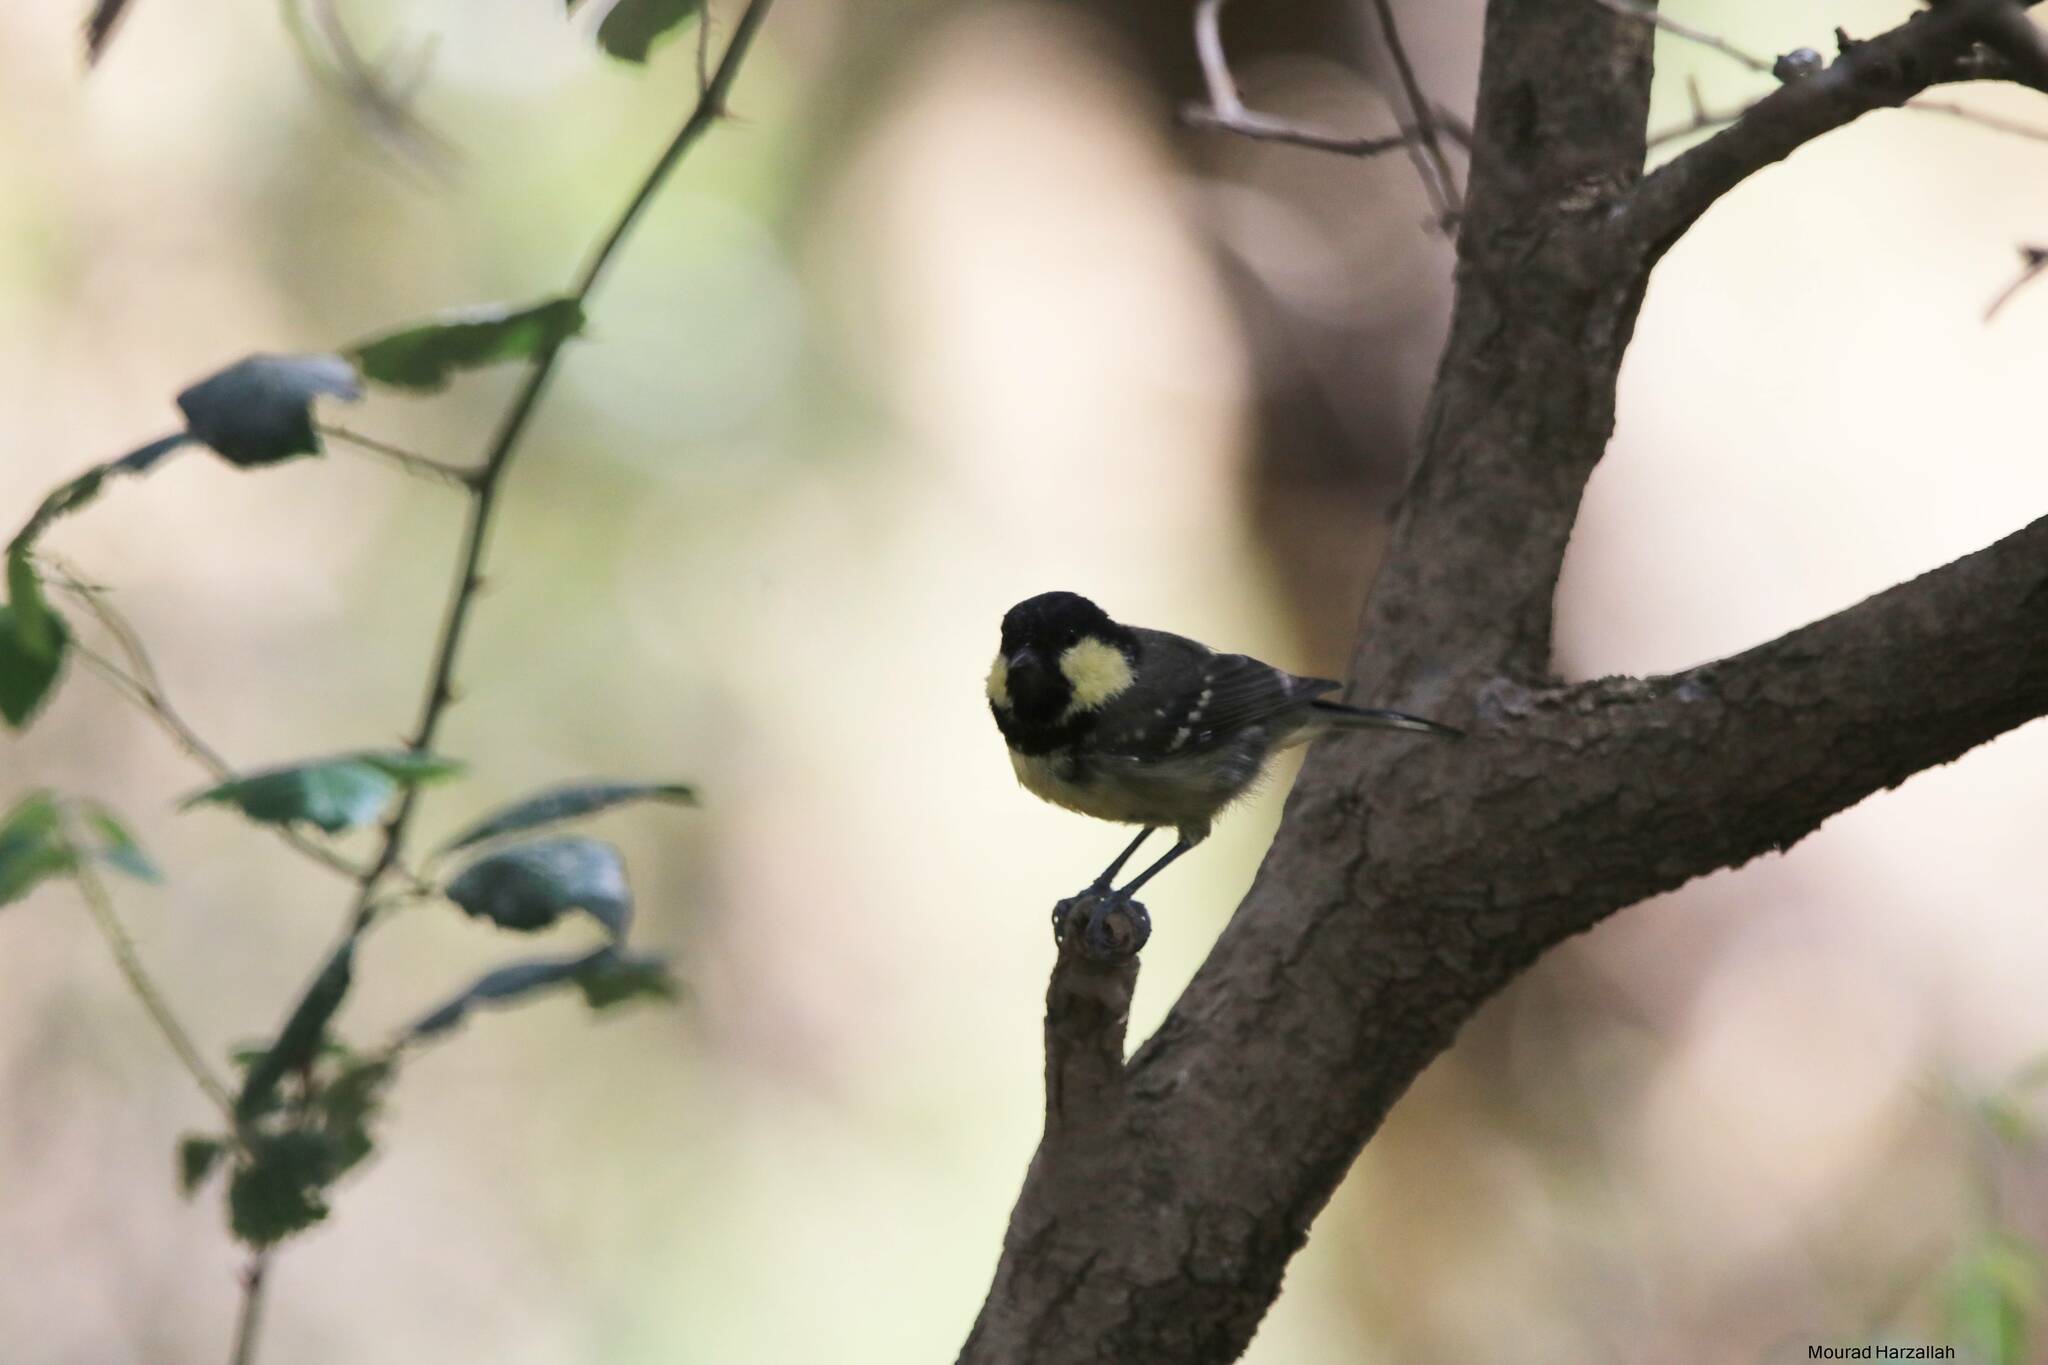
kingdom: Animalia
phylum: Chordata
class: Aves
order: Passeriformes
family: Paridae
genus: Periparus
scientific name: Periparus ater
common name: Coal tit
